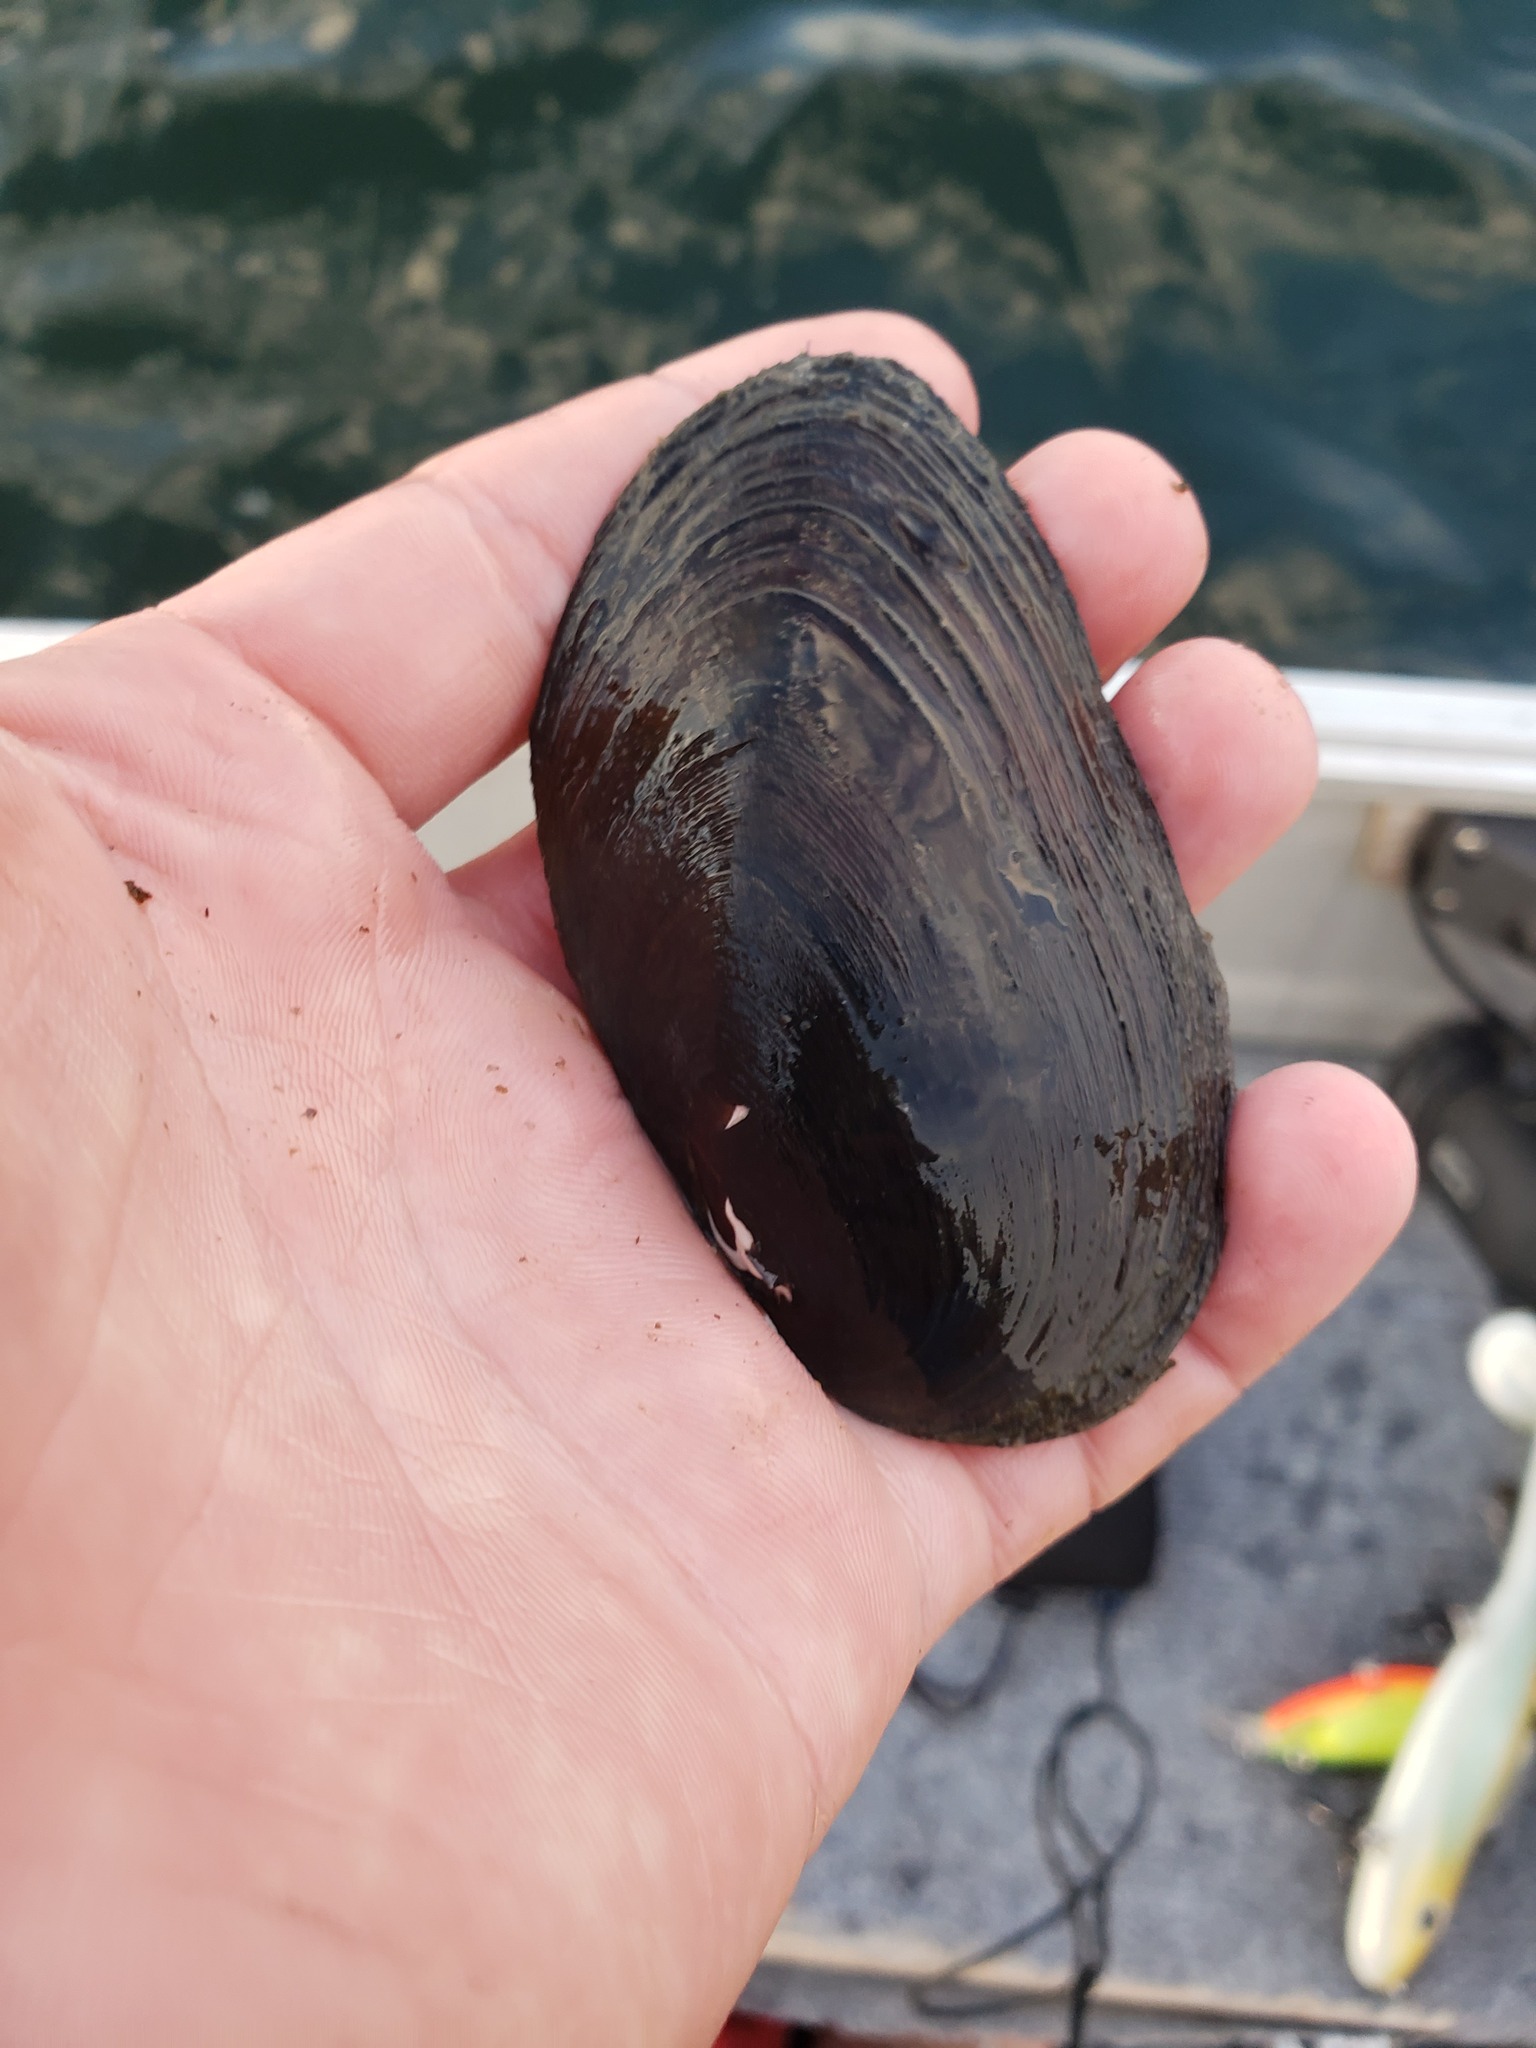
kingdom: Animalia
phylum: Mollusca
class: Bivalvia
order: Unionida
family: Unionidae
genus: Elliptio
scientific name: Elliptio complanata
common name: Eastern elliptio
